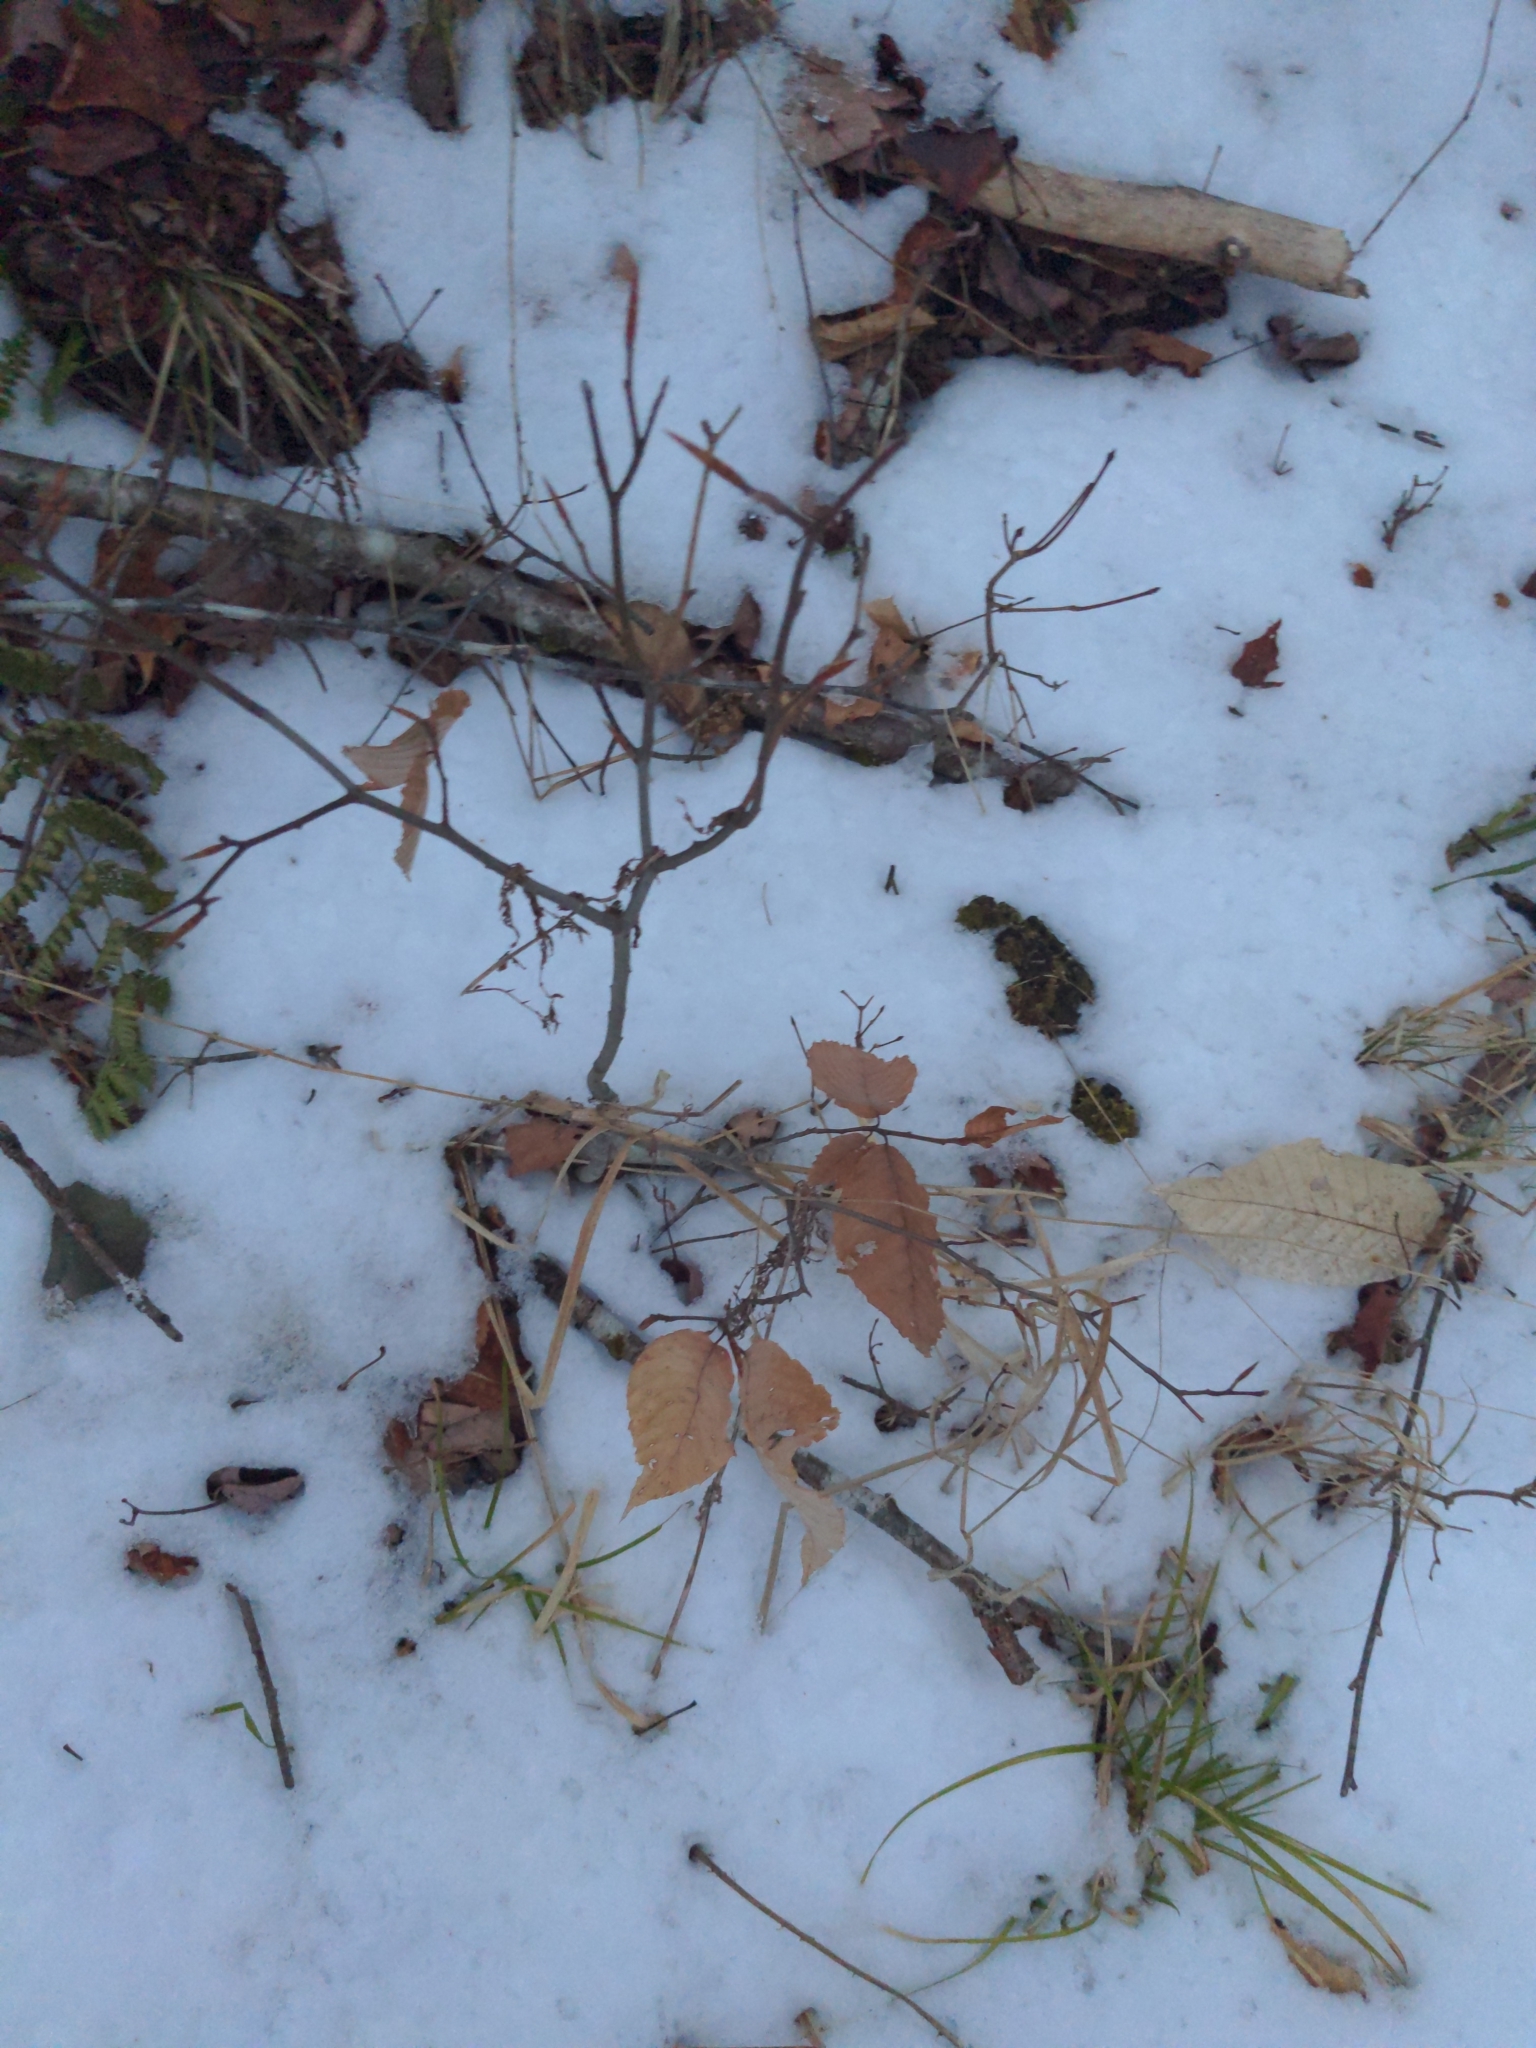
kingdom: Plantae
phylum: Tracheophyta
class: Magnoliopsida
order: Fagales
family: Fagaceae
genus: Fagus
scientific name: Fagus grandifolia
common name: American beech
